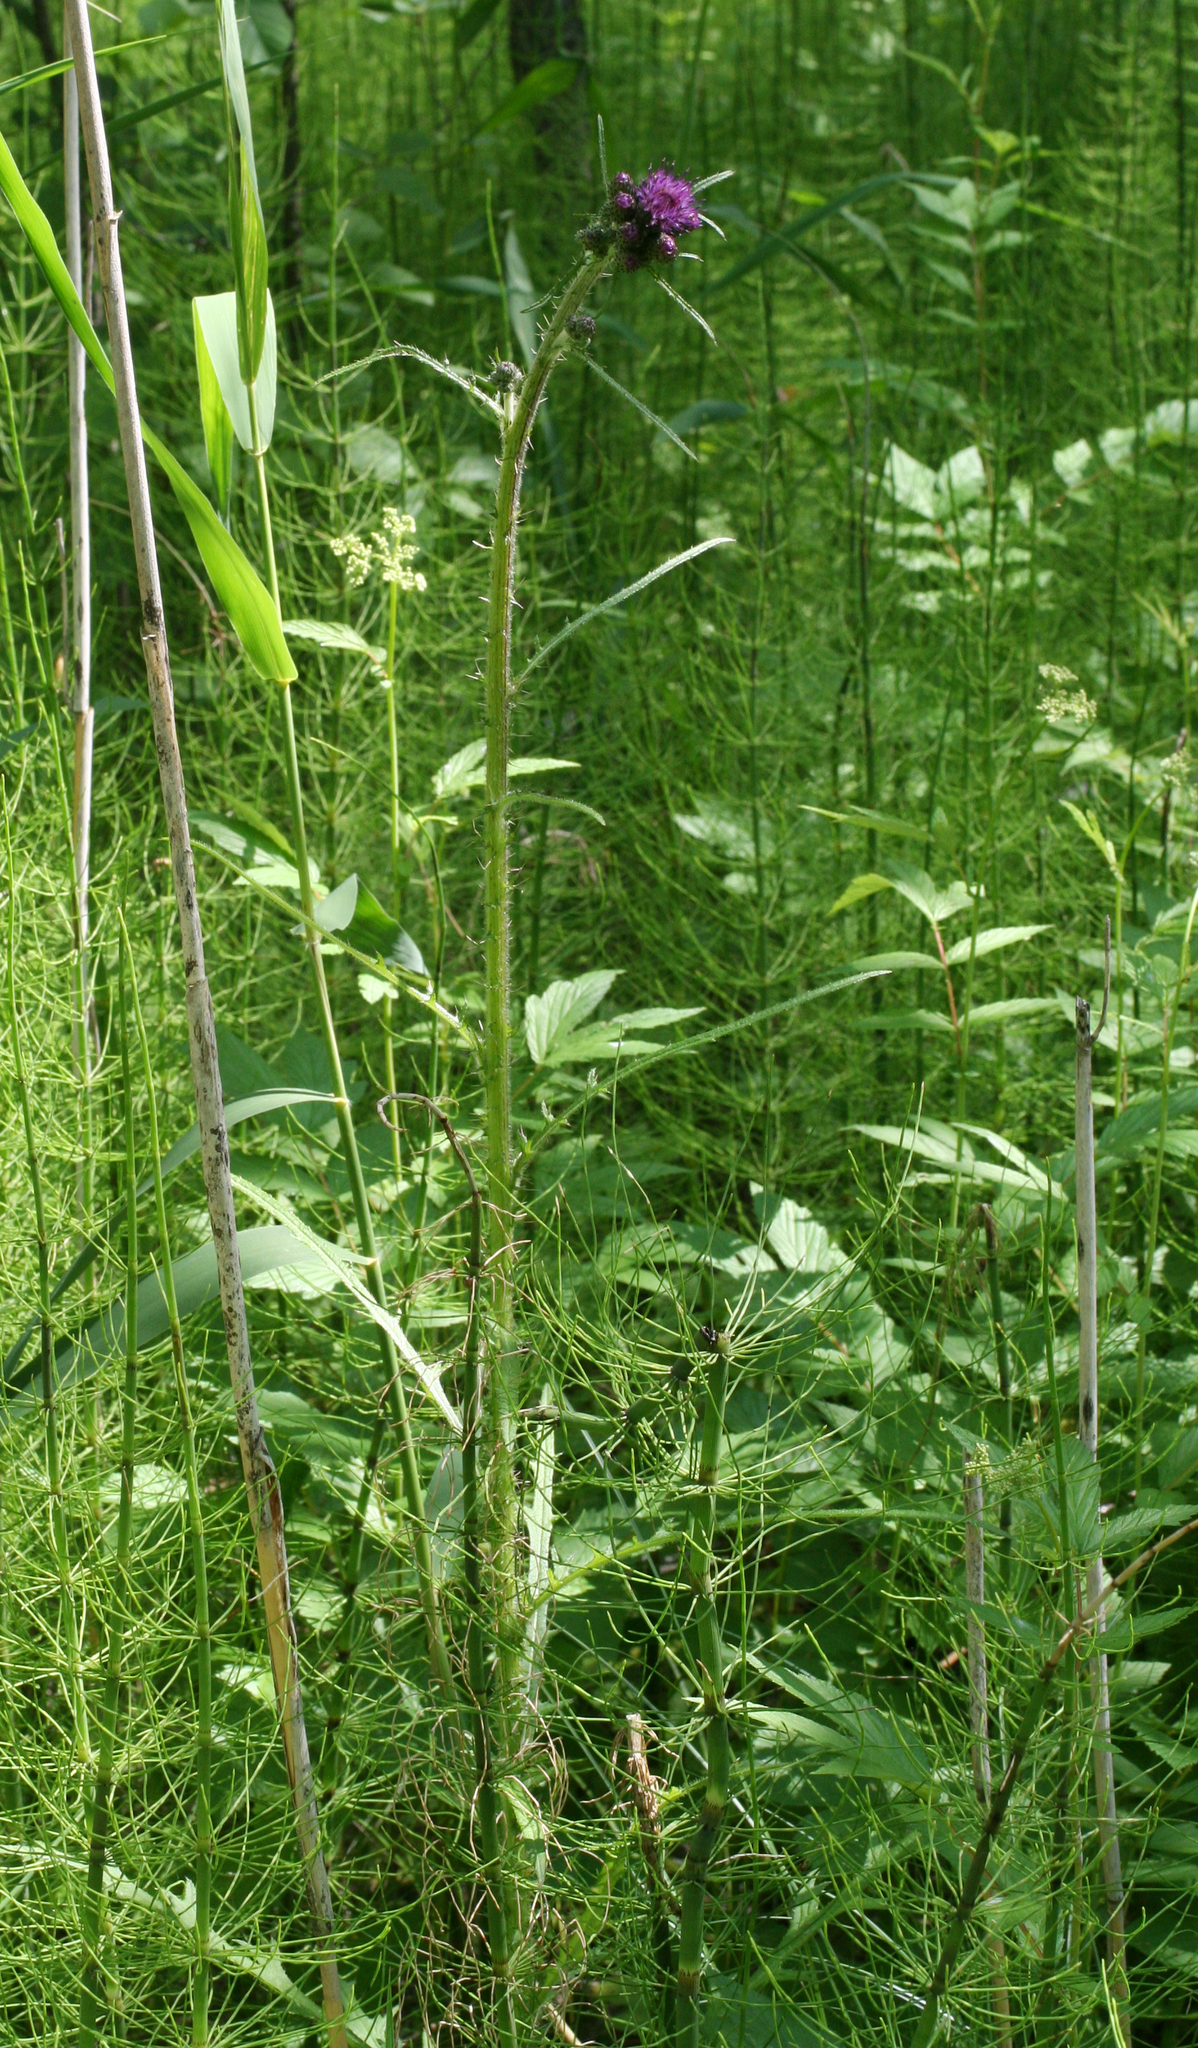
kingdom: Plantae
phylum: Tracheophyta
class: Magnoliopsida
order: Asterales
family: Asteraceae
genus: Cirsium
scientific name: Cirsium palustre
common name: Marsh thistle
